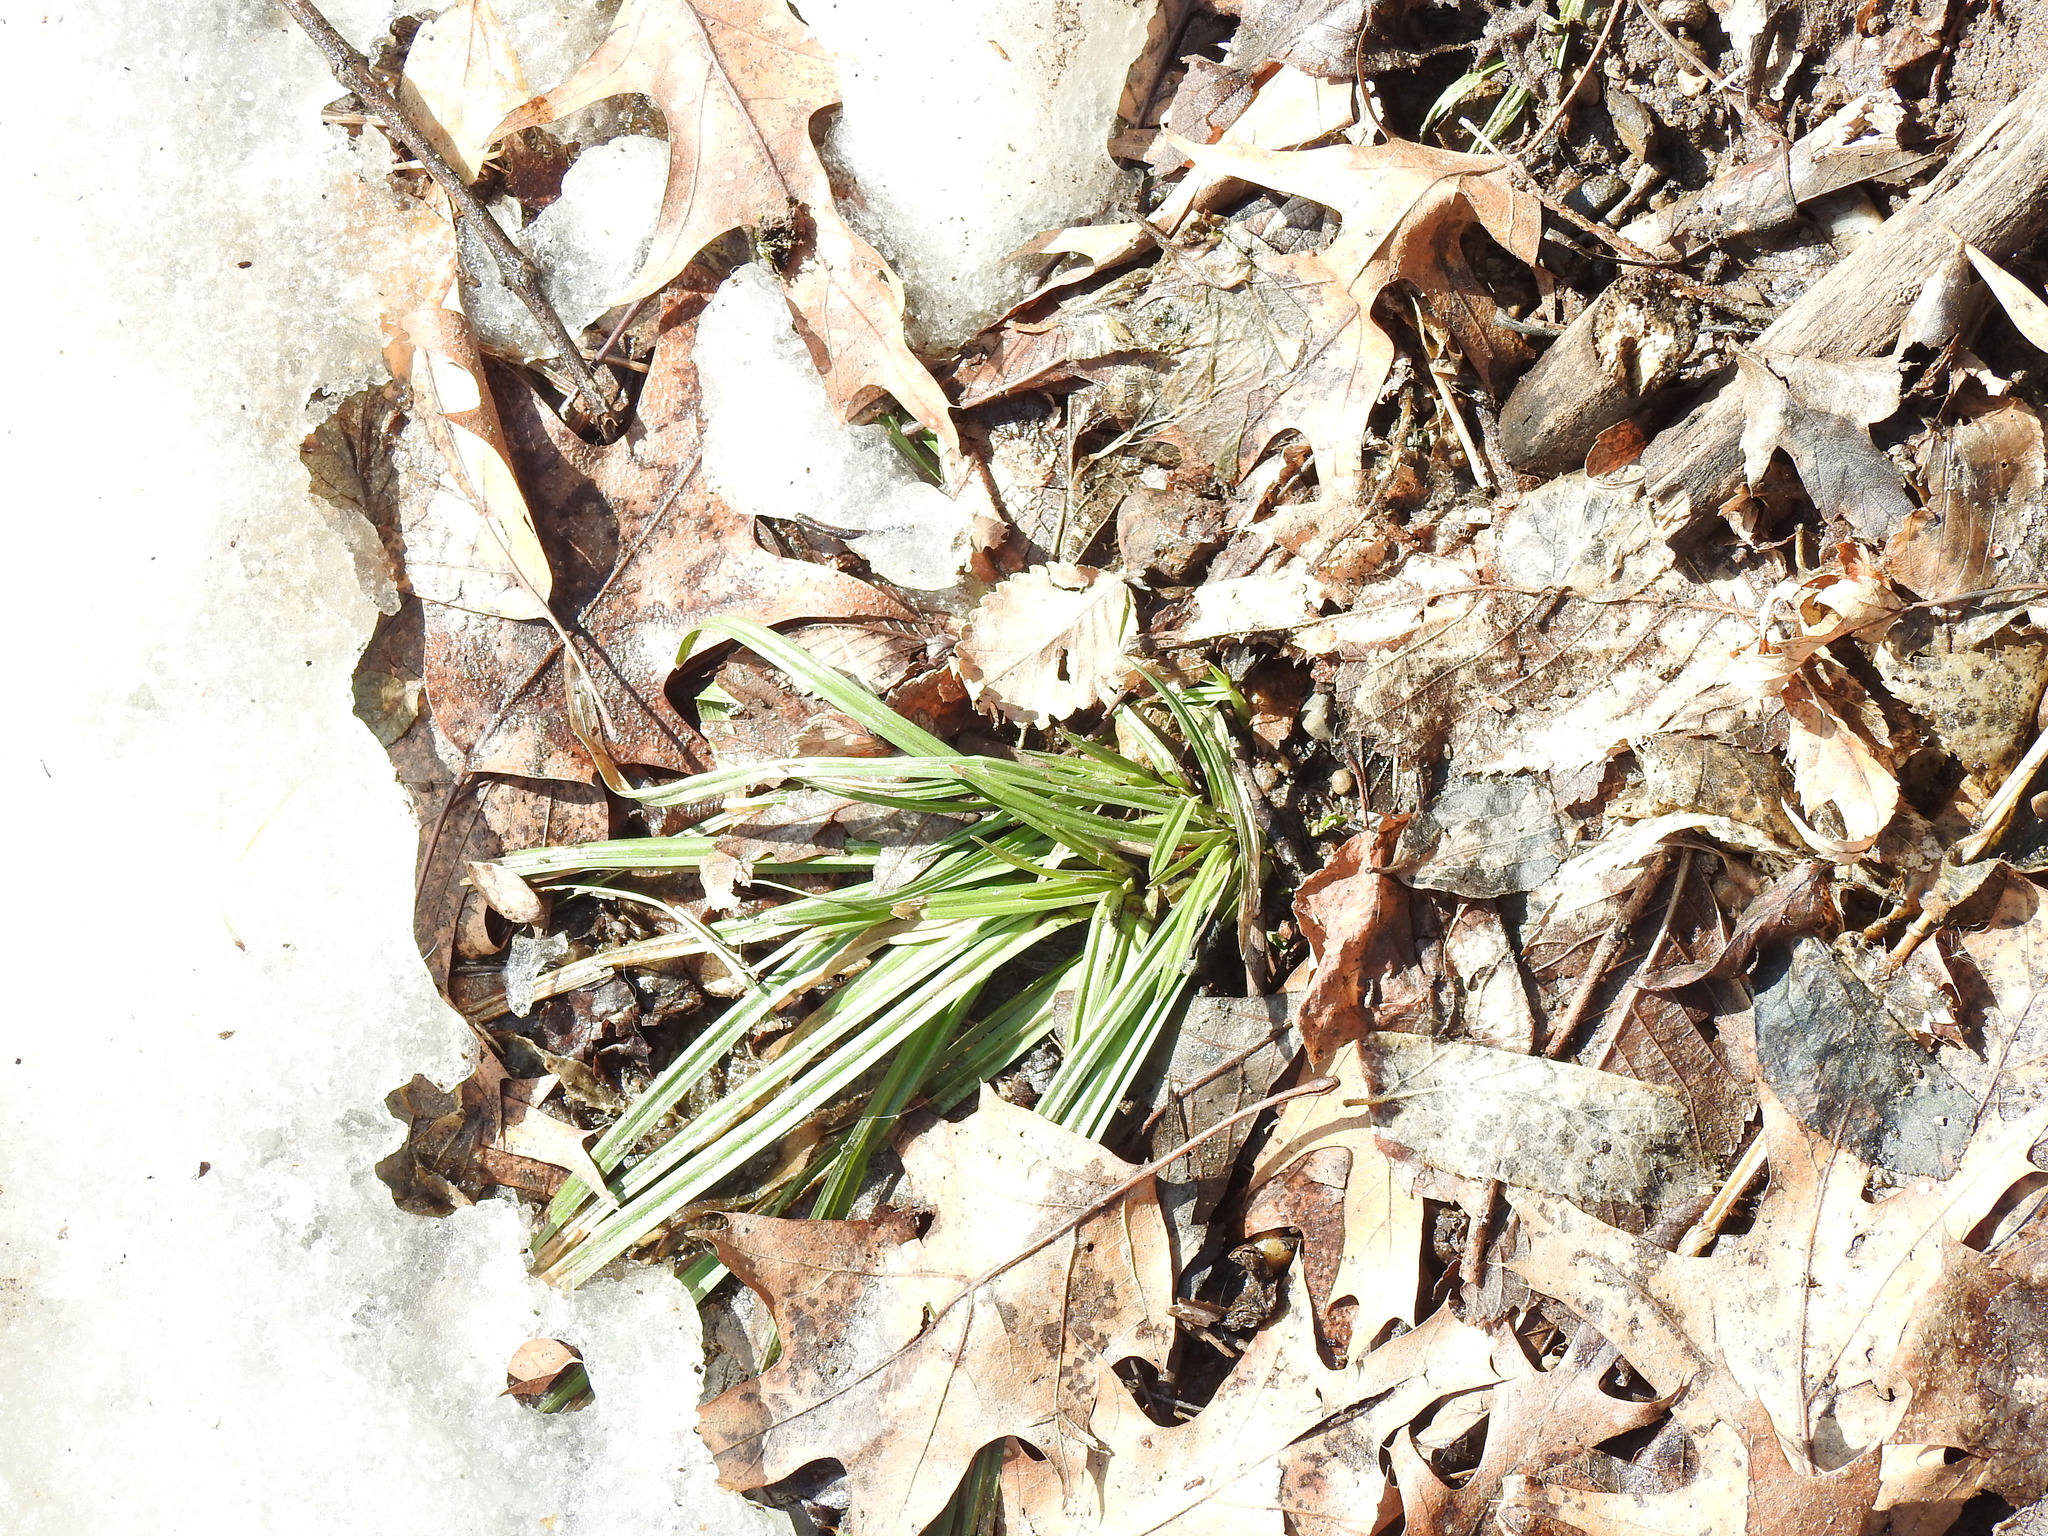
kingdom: Plantae
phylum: Tracheophyta
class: Liliopsida
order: Poales
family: Cyperaceae
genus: Carex
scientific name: Carex pedunculata
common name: Pedunculate sedge
